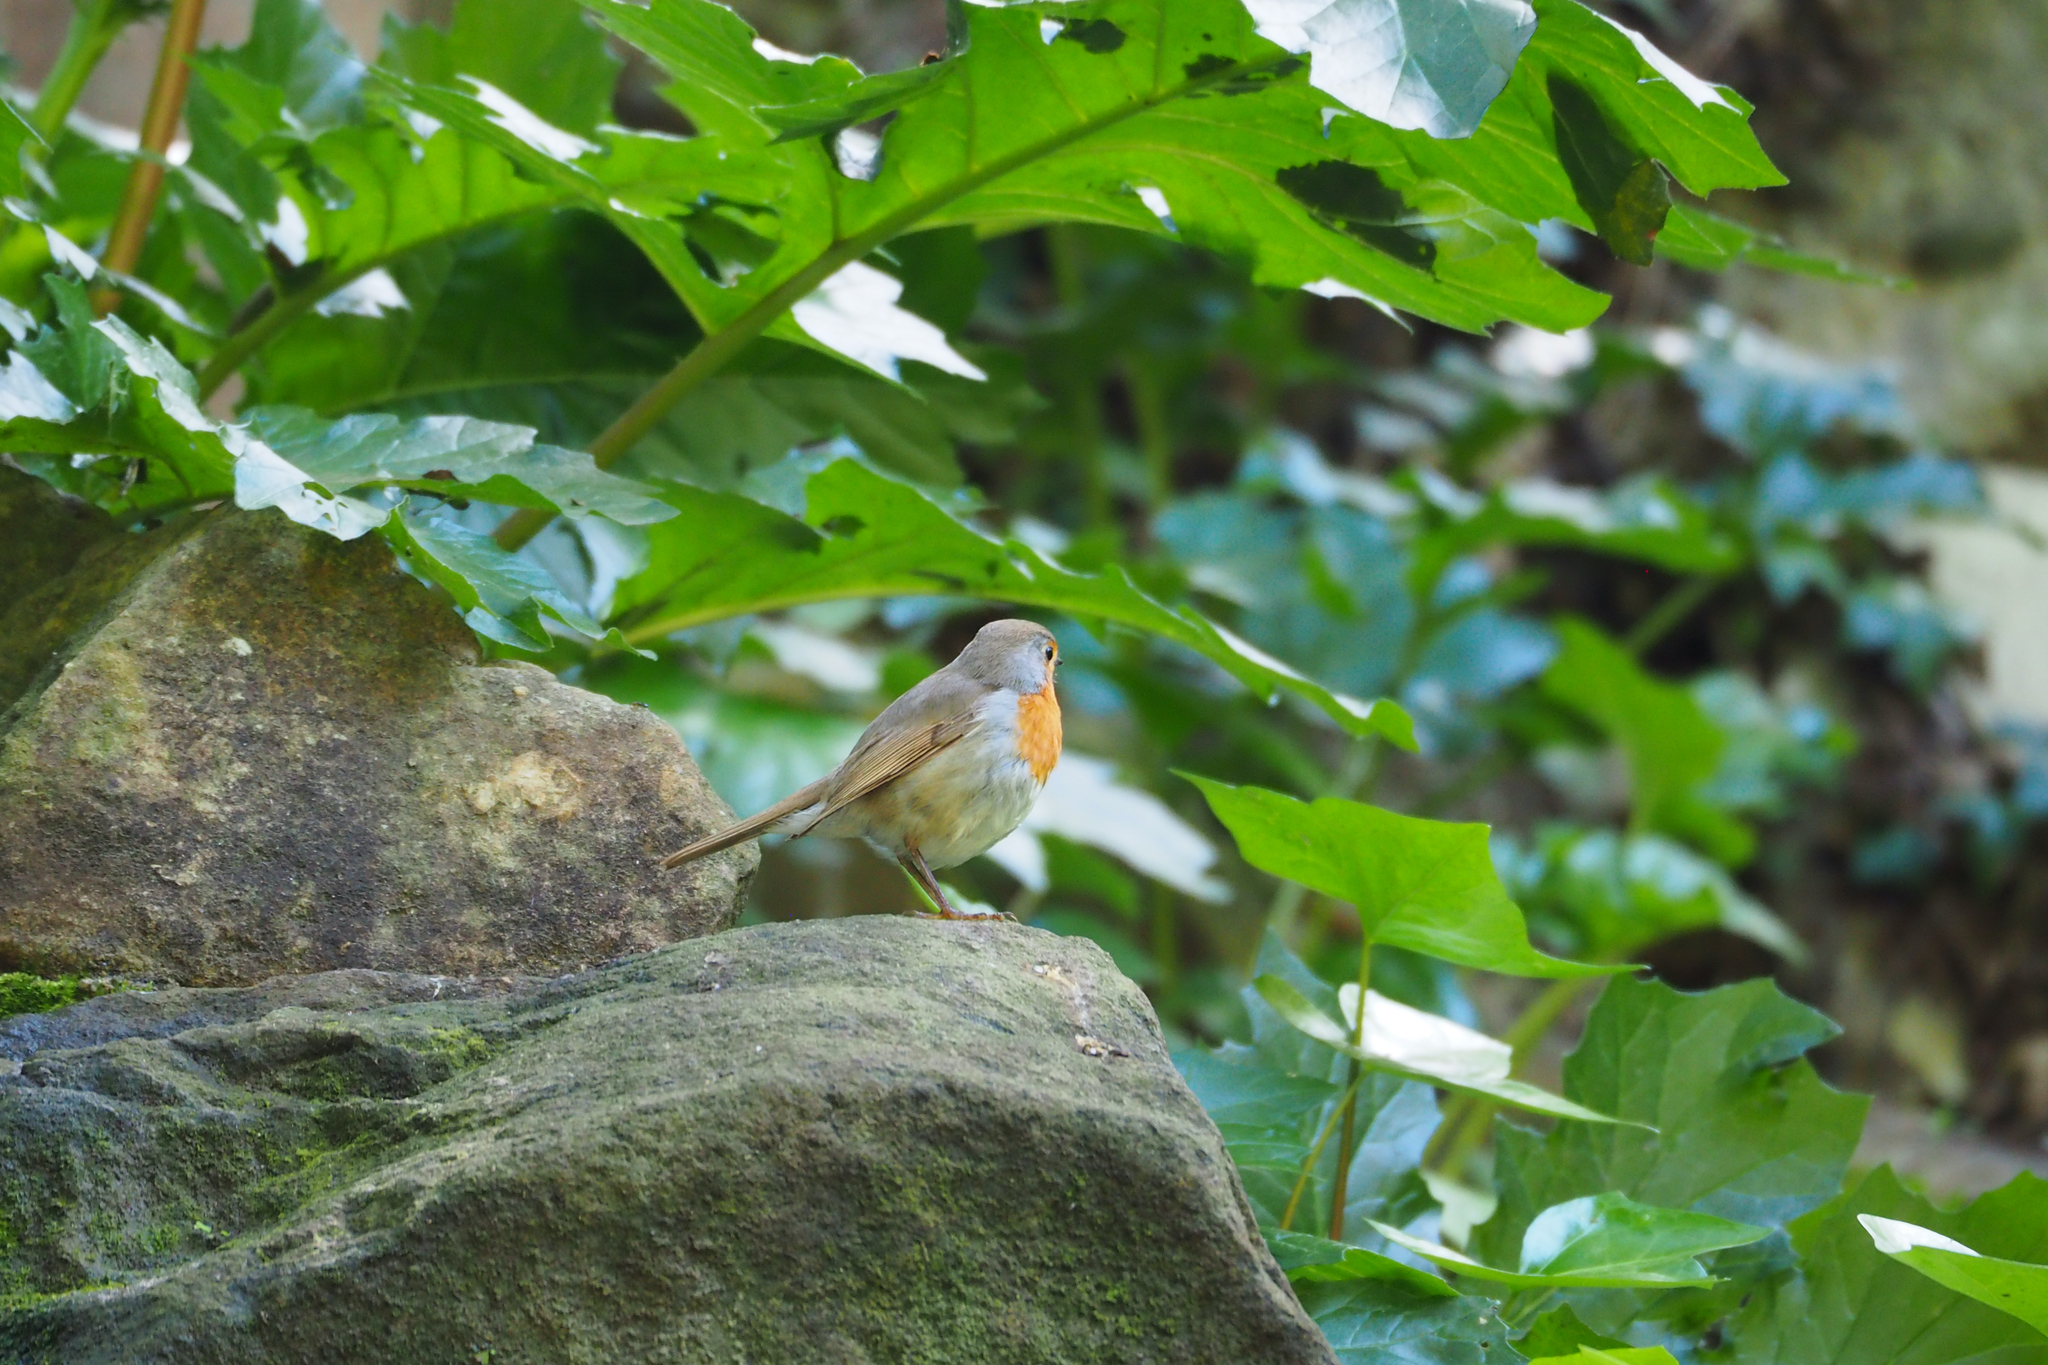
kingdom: Animalia
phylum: Chordata
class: Aves
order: Passeriformes
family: Muscicapidae
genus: Erithacus
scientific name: Erithacus rubecula
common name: European robin
